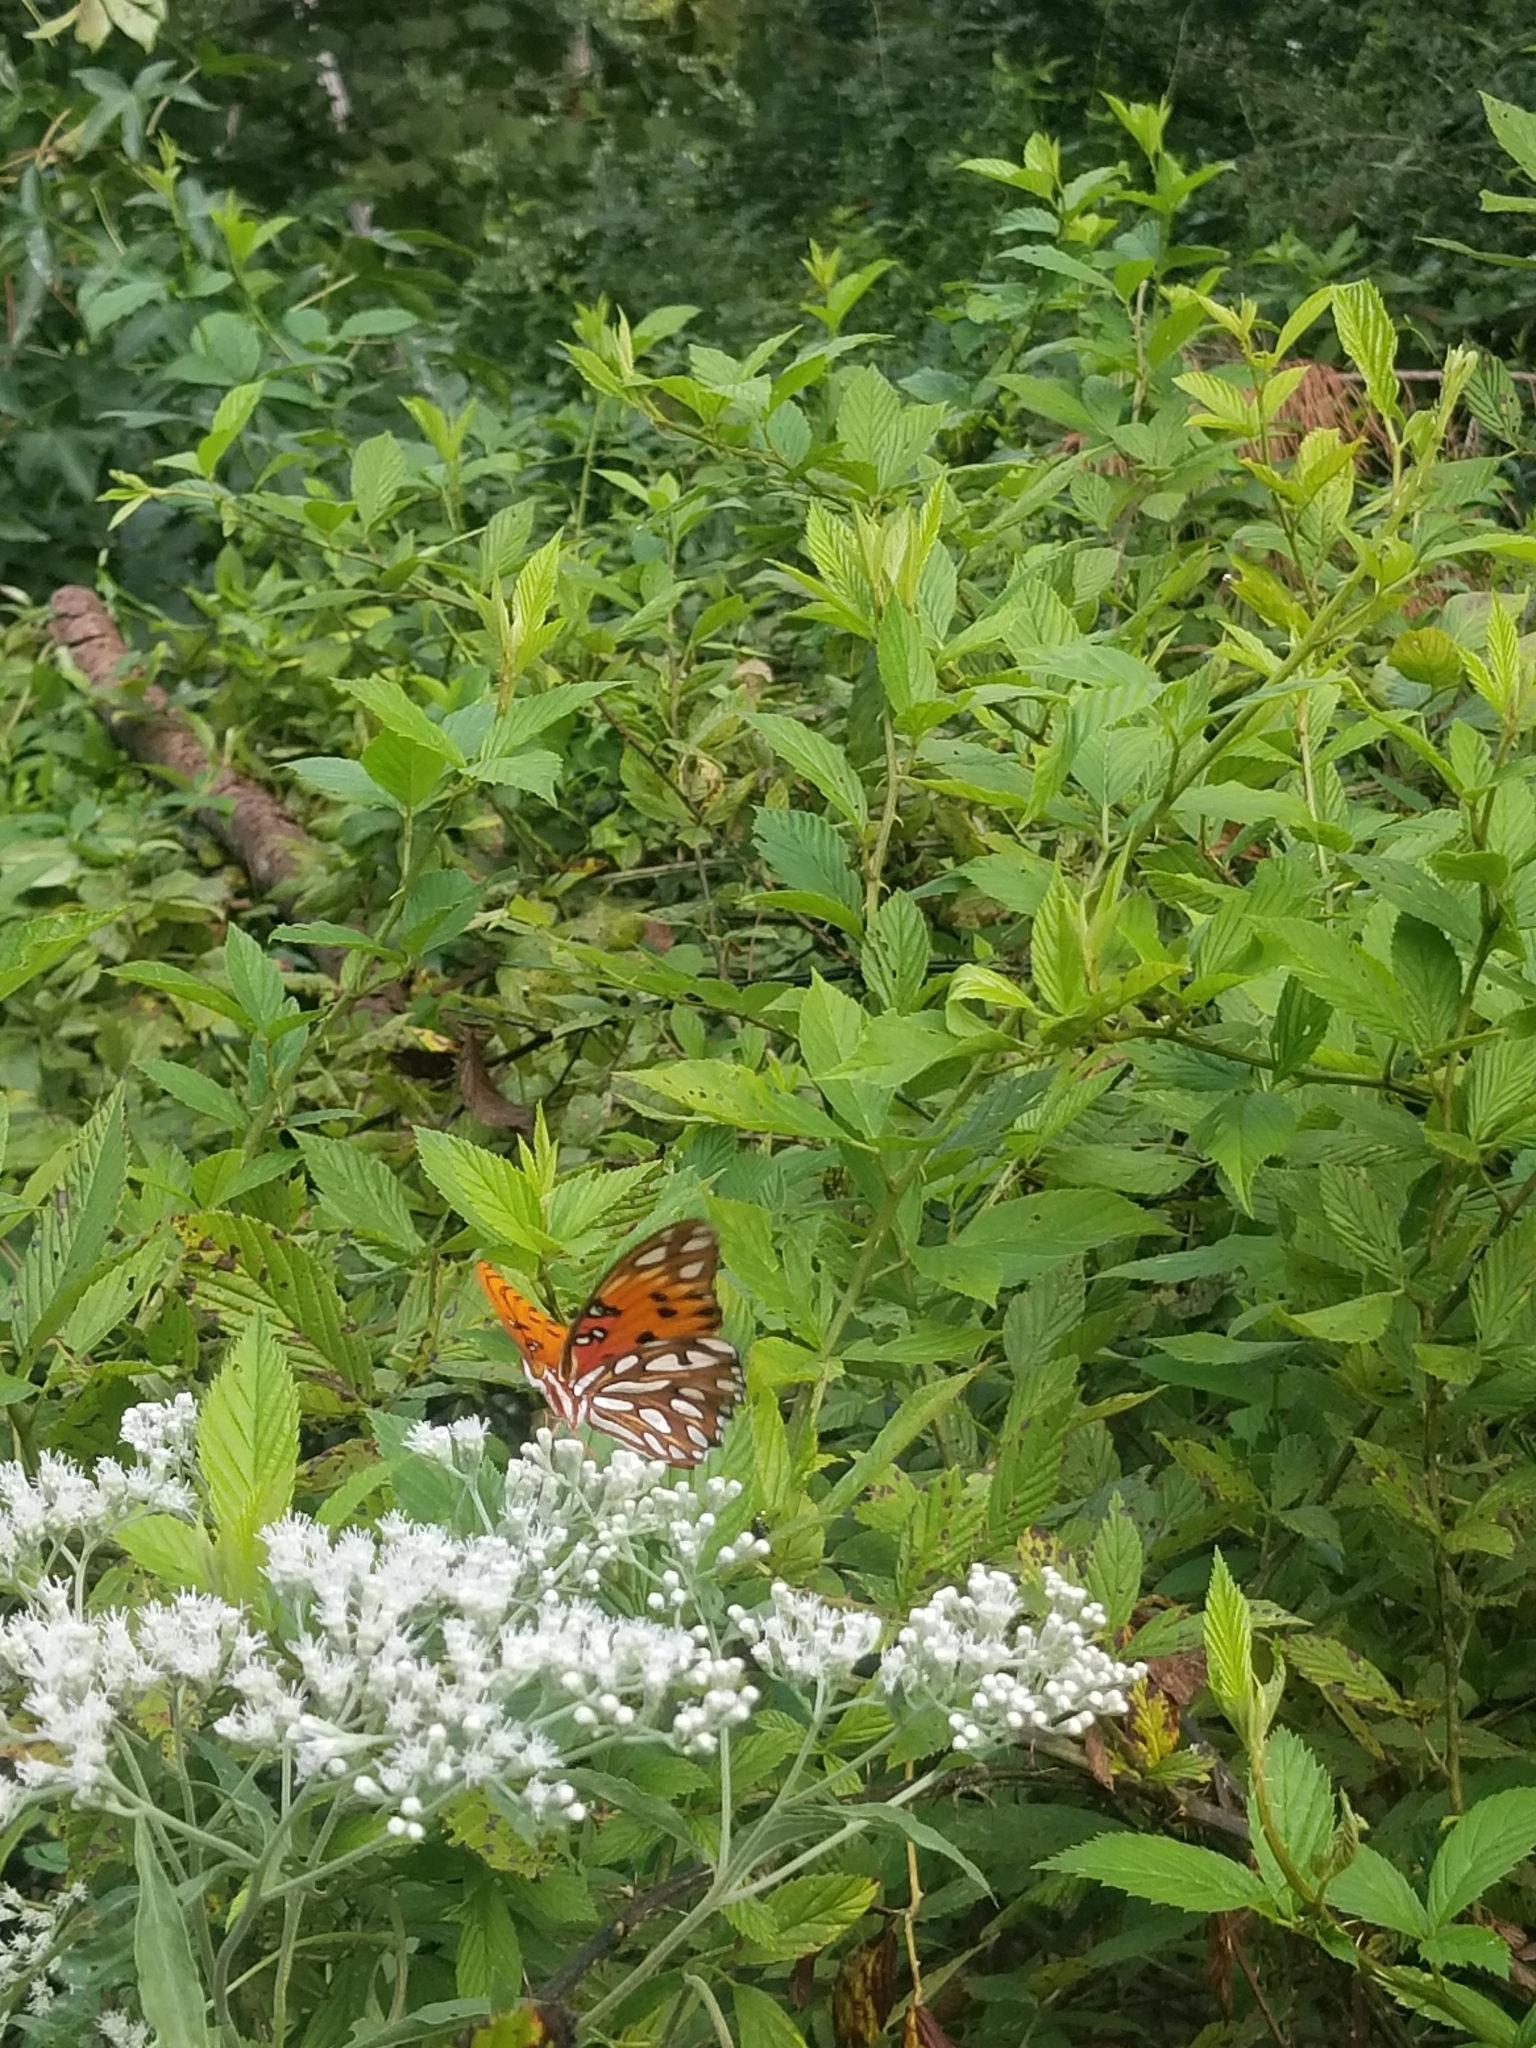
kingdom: Animalia
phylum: Arthropoda
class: Insecta
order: Lepidoptera
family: Nymphalidae
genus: Dione
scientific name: Dione vanillae
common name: Gulf fritillary
